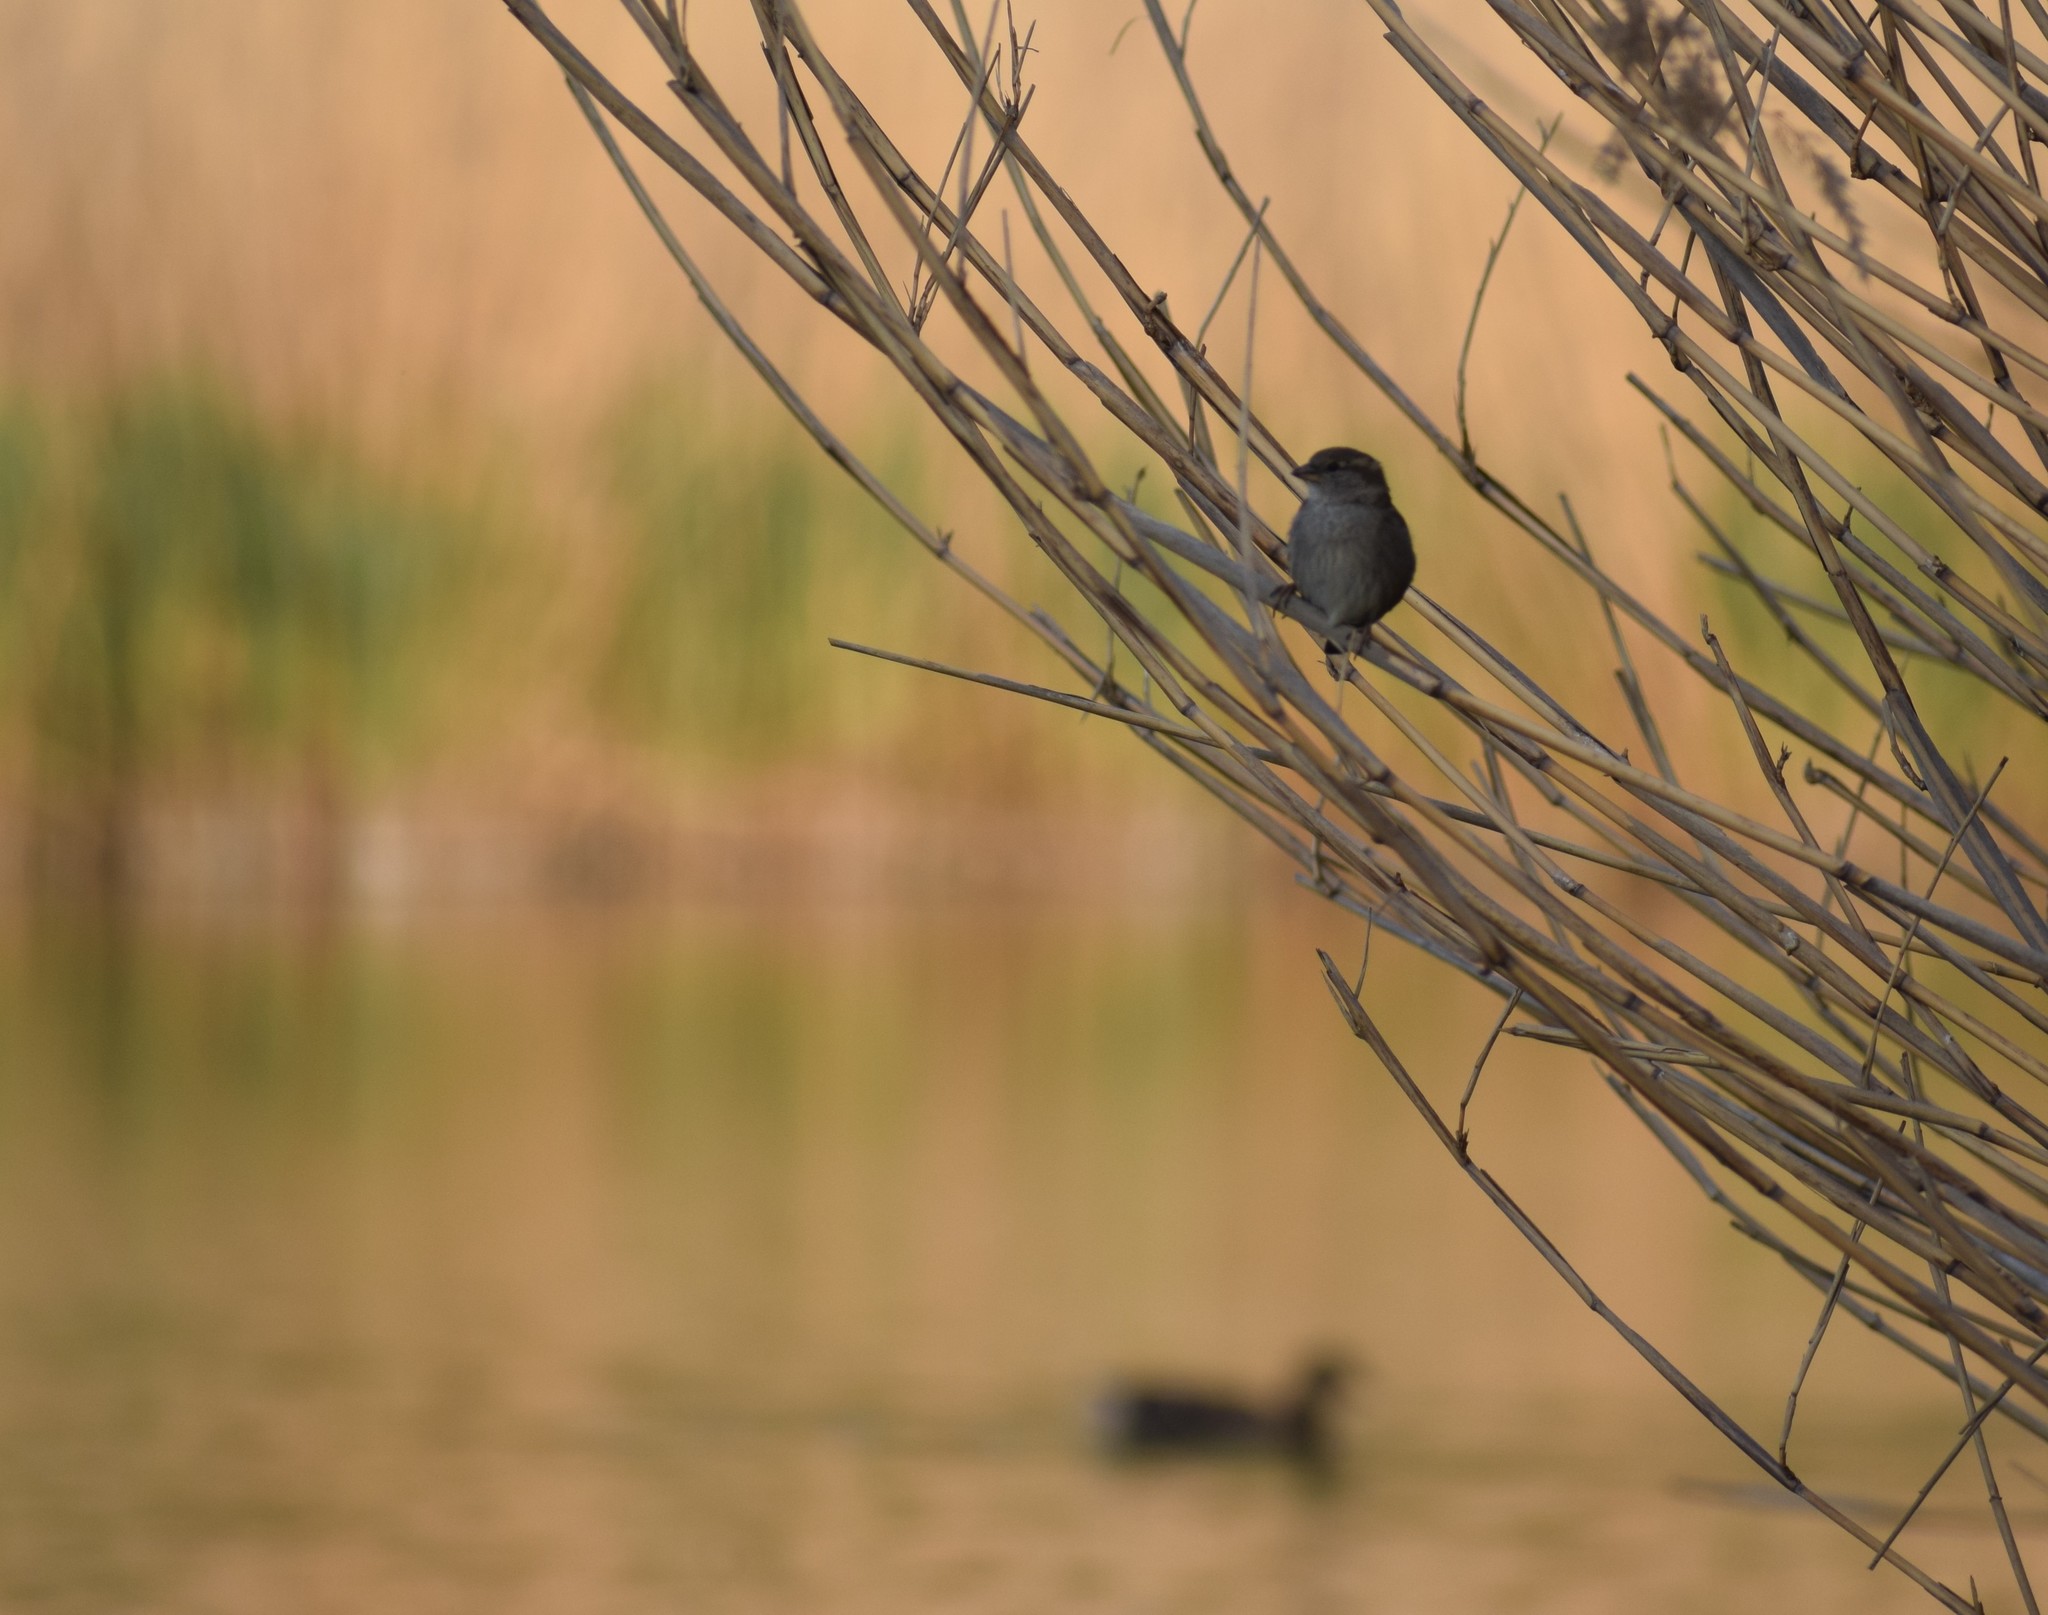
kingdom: Animalia
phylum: Chordata
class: Aves
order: Passeriformes
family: Passeridae
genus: Passer
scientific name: Passer domesticus
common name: House sparrow
